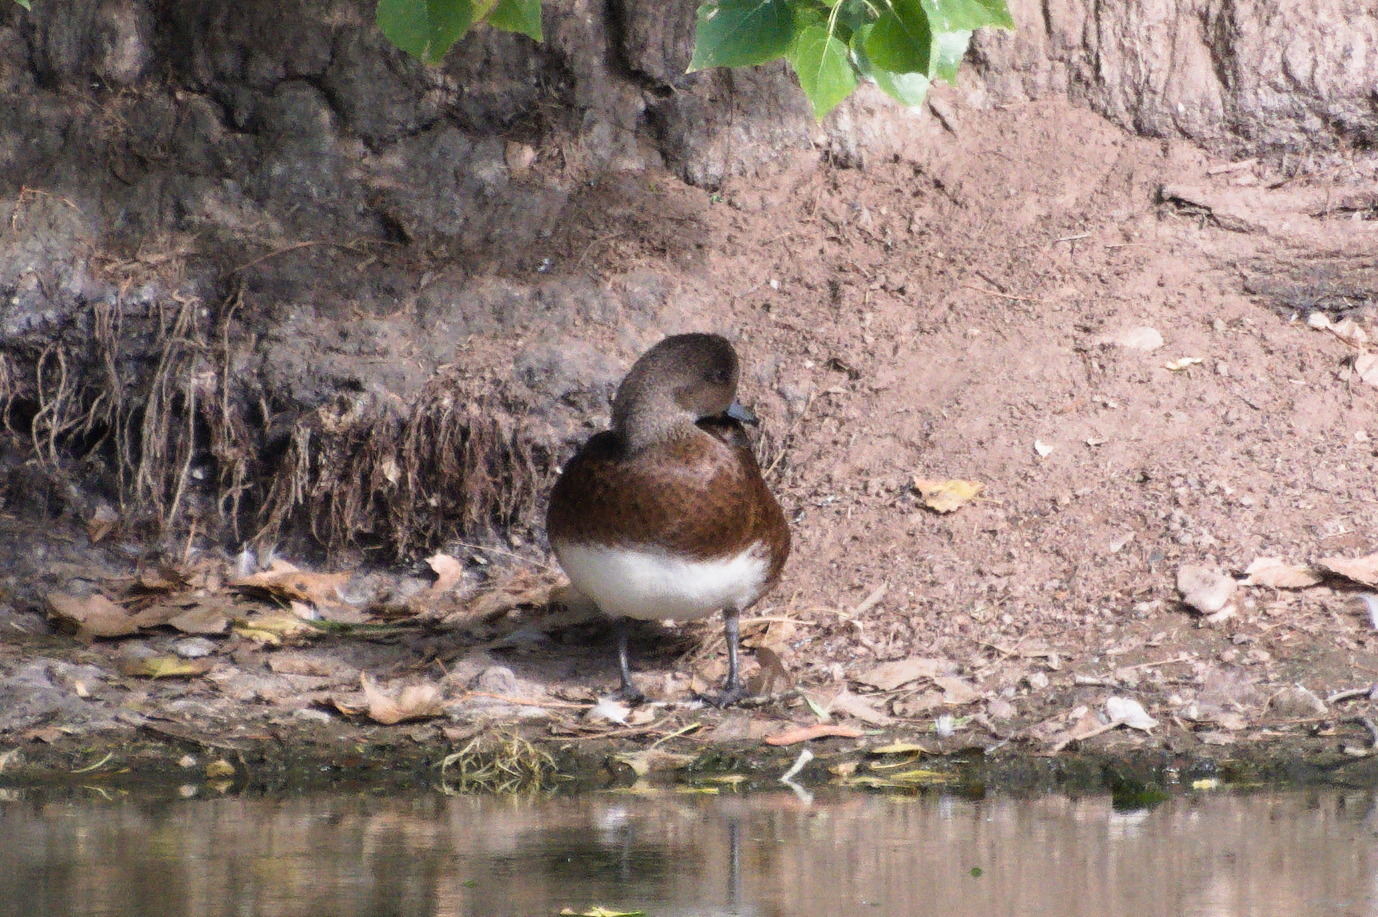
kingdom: Animalia
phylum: Chordata
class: Aves
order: Anseriformes
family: Anatidae
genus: Mareca
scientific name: Mareca americana
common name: American wigeon
